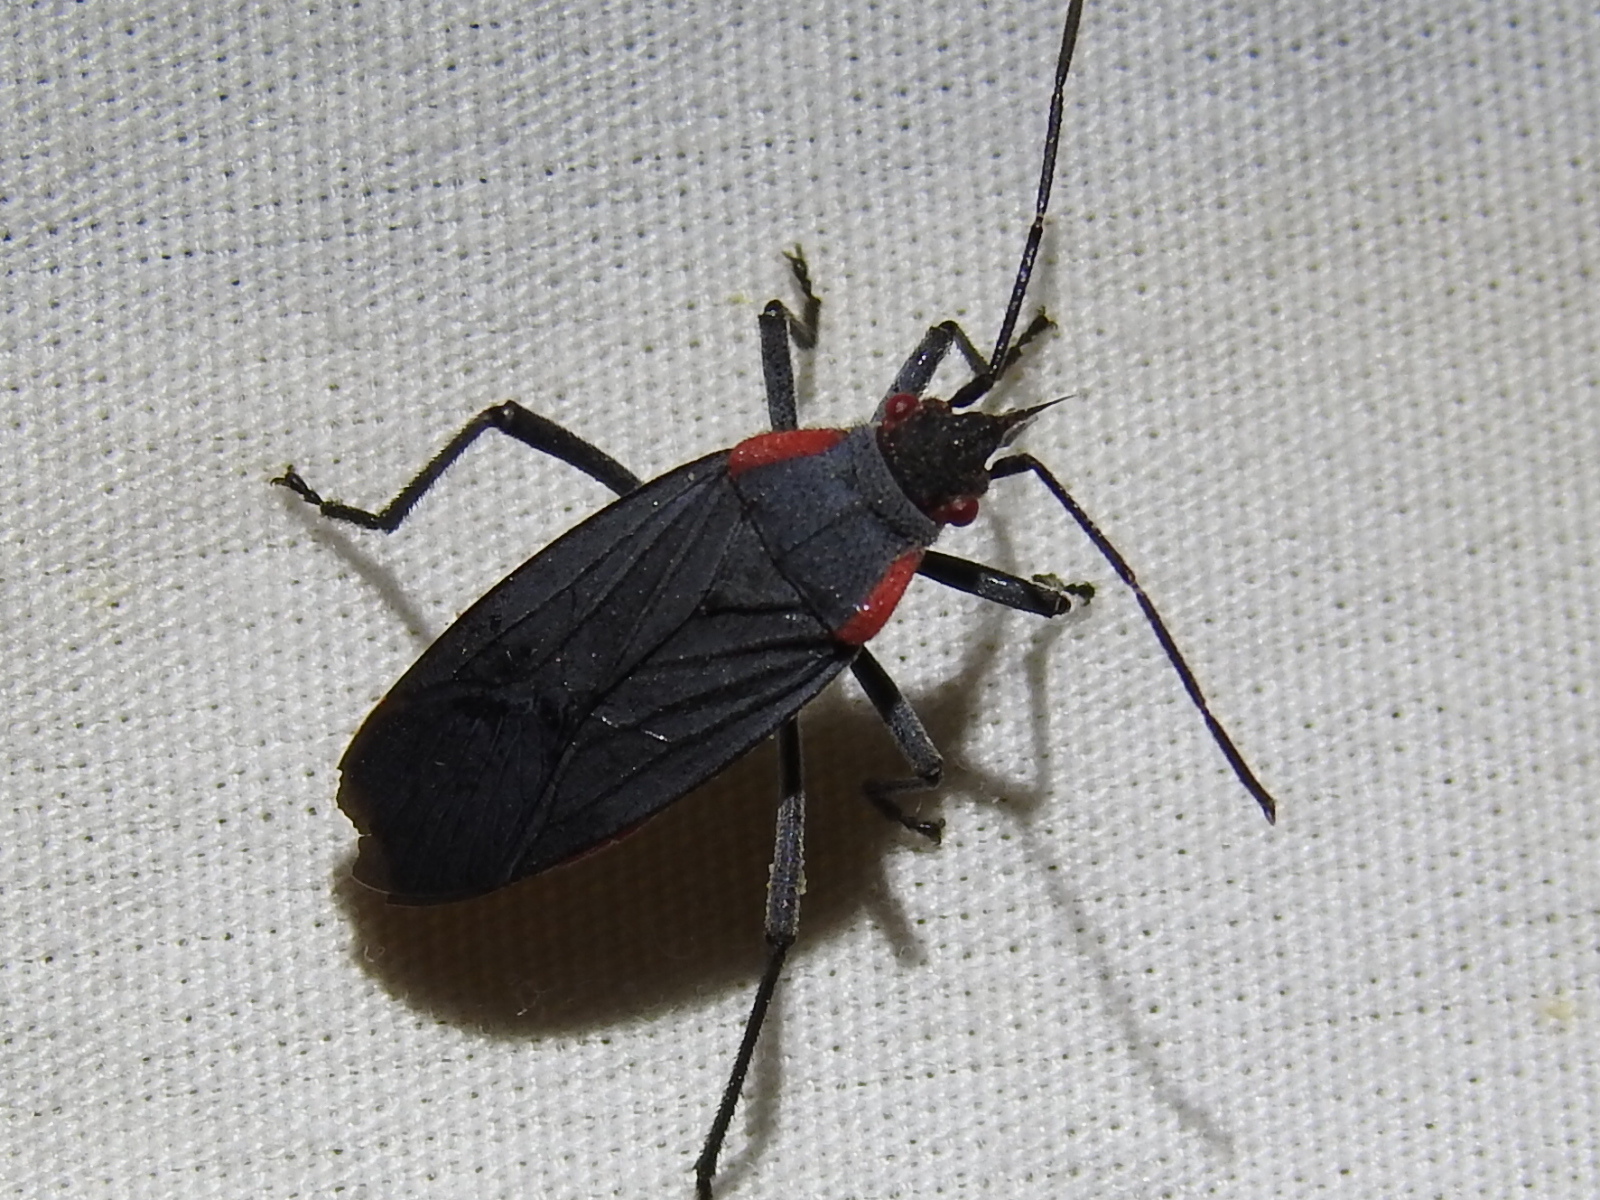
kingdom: Animalia
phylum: Arthropoda
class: Insecta
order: Hemiptera
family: Rhopalidae
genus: Jadera
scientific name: Jadera haematoloma
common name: Red-shouldered bug
